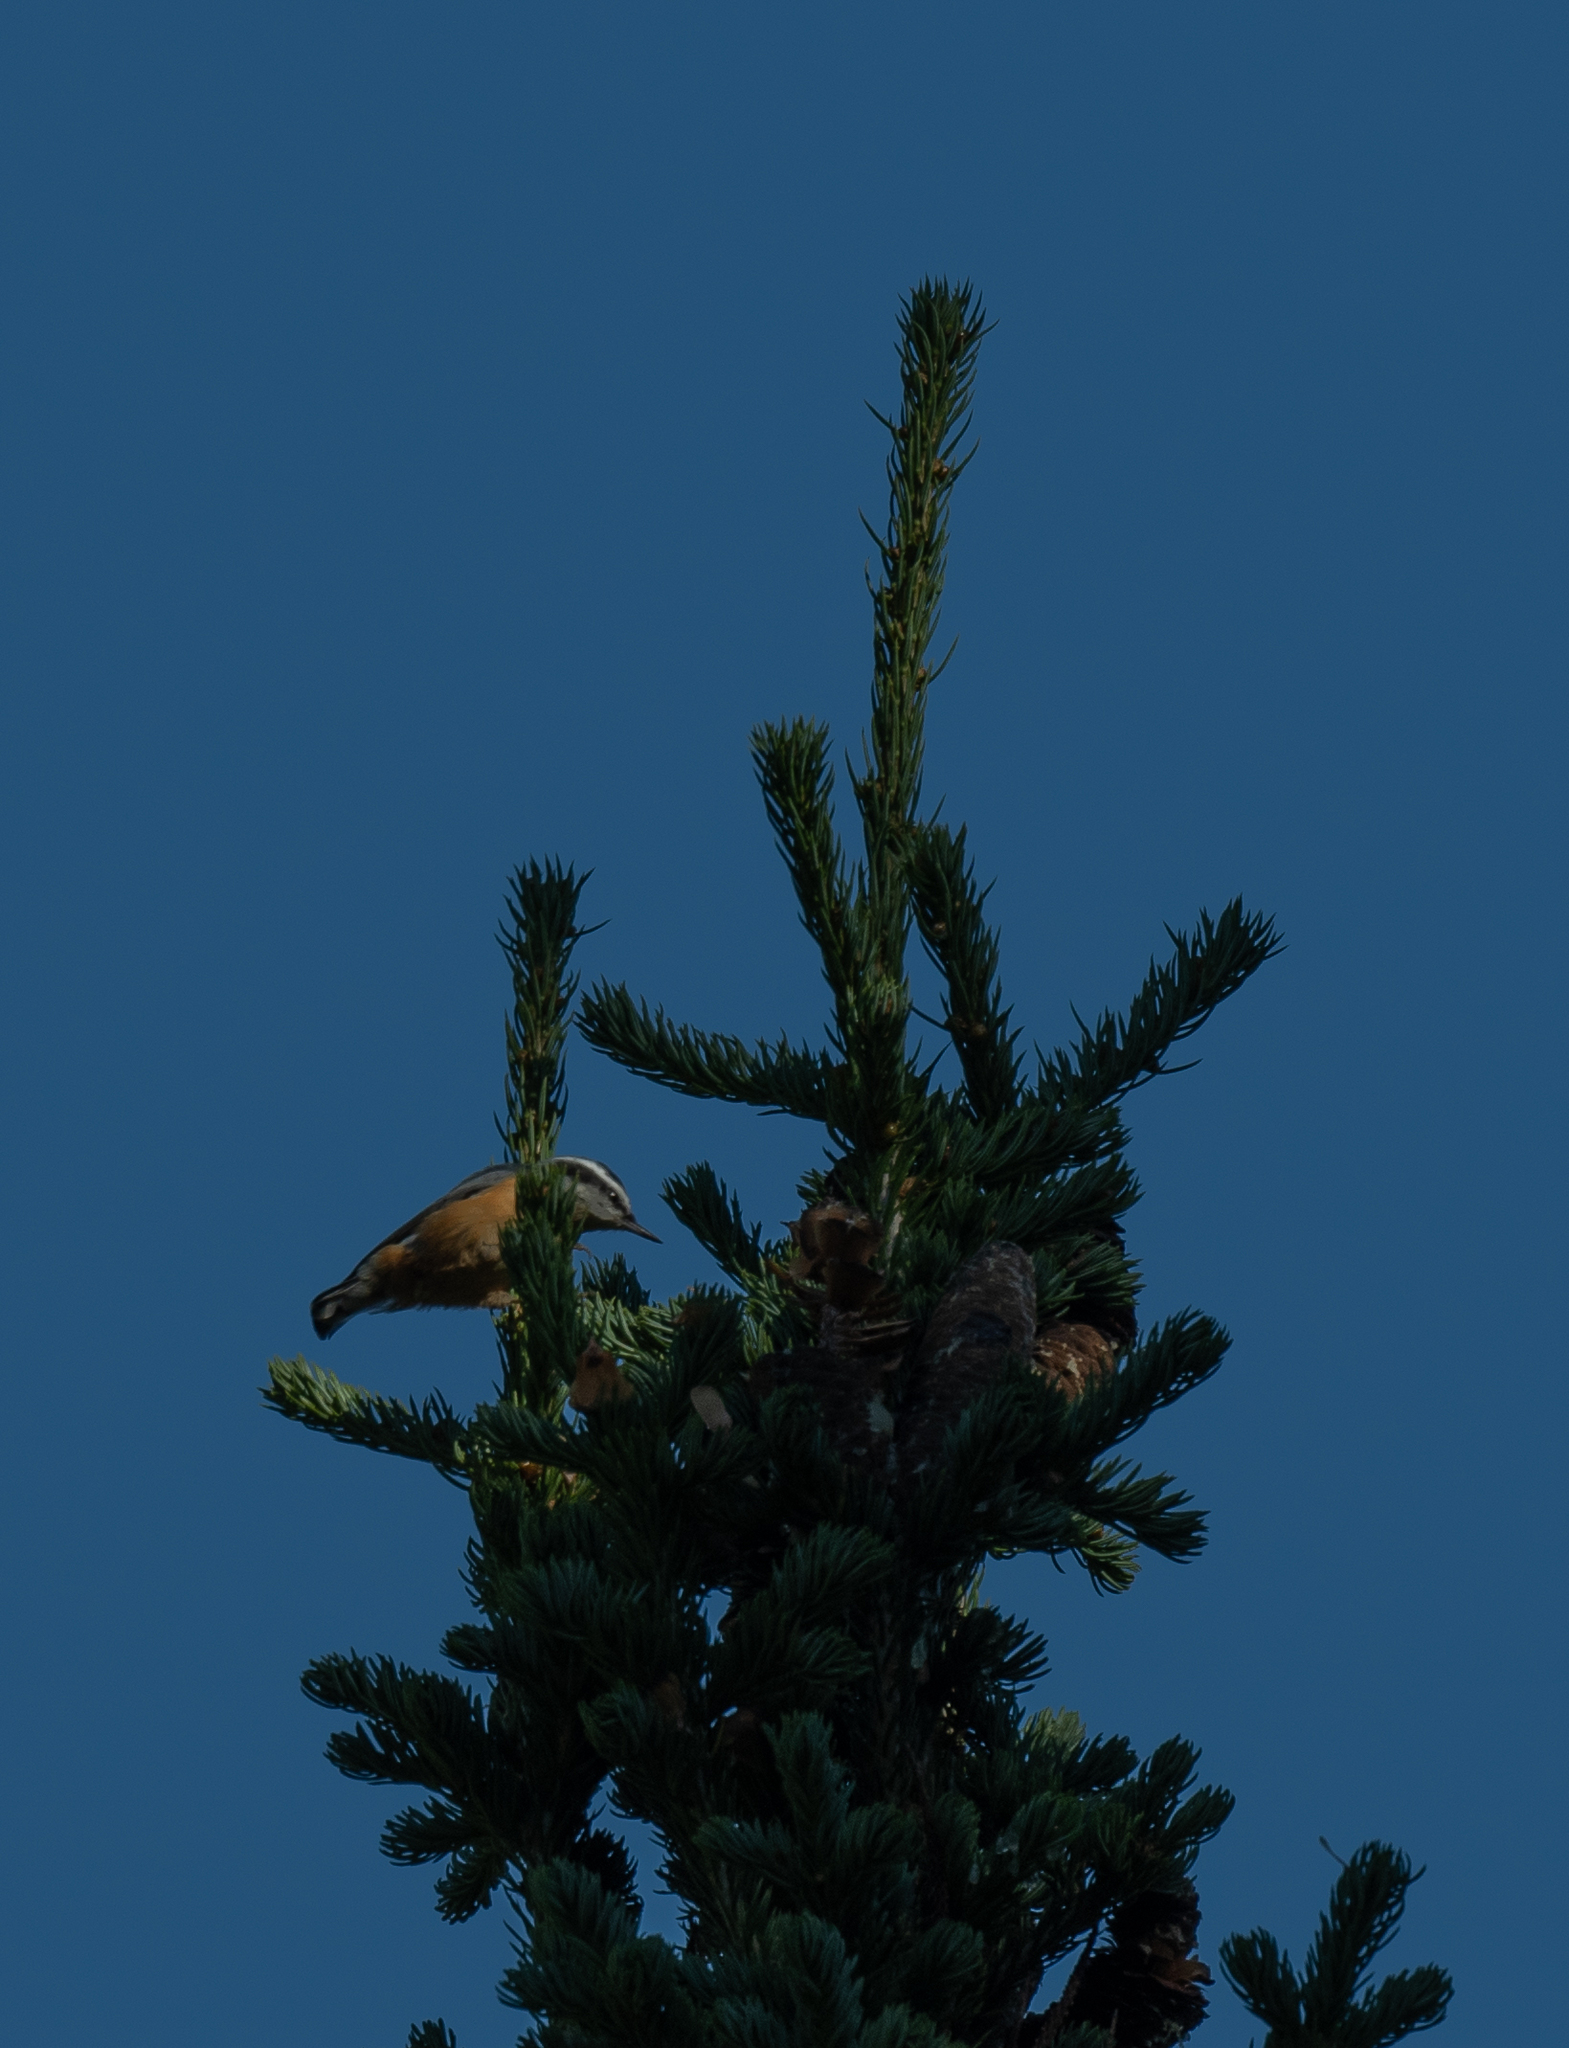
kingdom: Animalia
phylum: Chordata
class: Aves
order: Passeriformes
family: Sittidae
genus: Sitta
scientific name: Sitta canadensis
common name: Red-breasted nuthatch
